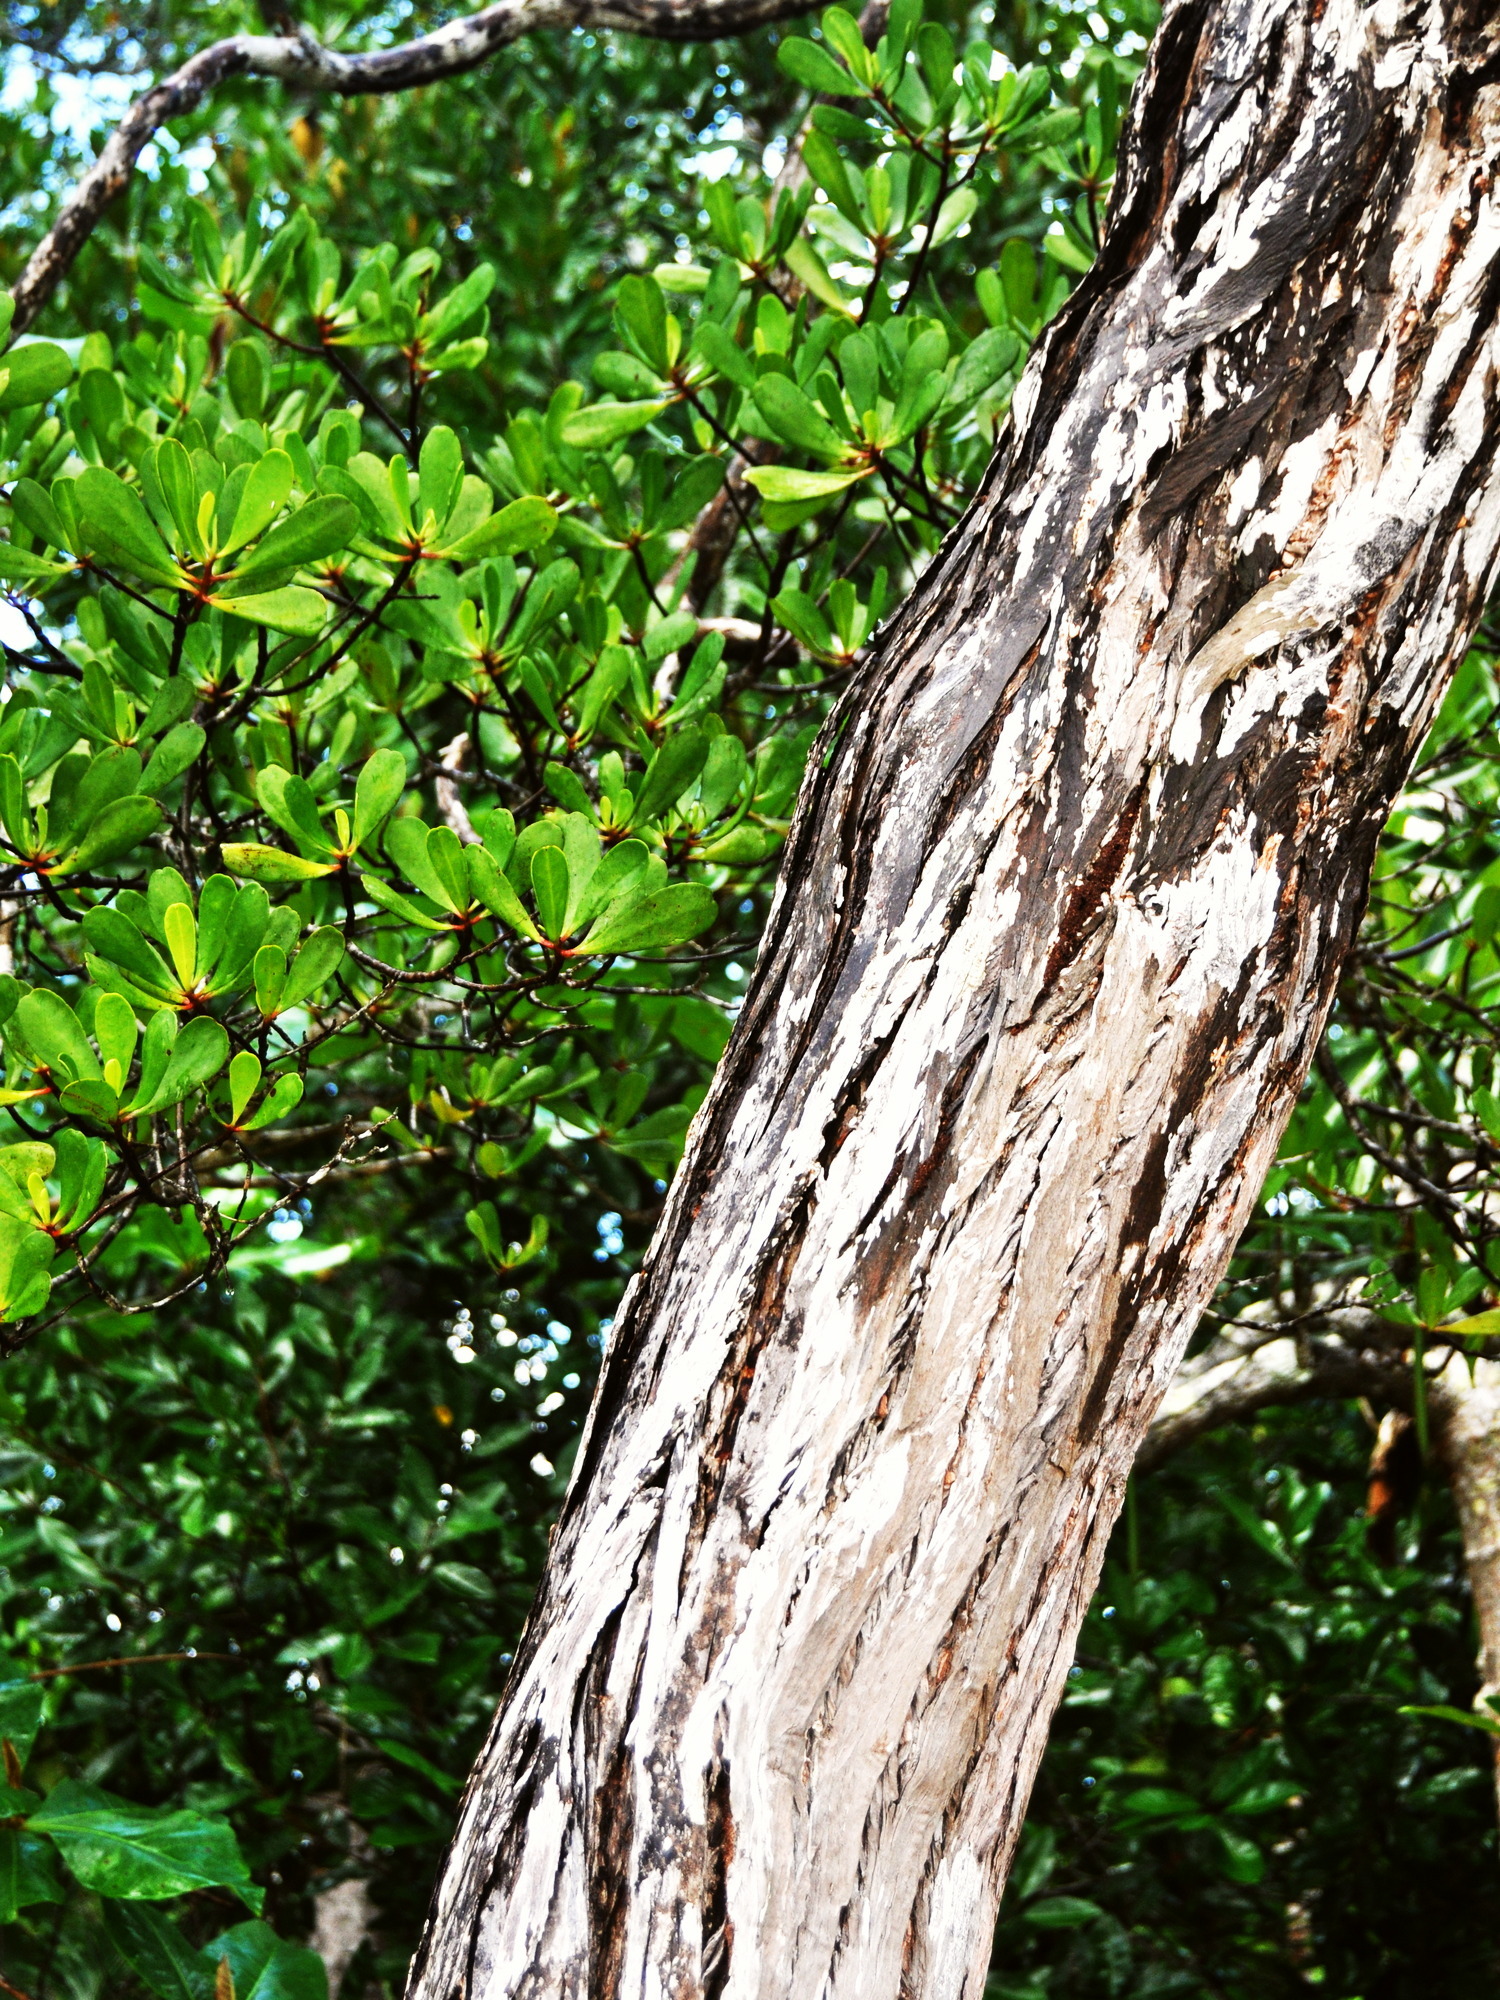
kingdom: Plantae
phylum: Tracheophyta
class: Magnoliopsida
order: Myrtales
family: Combretaceae
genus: Lumnitzera
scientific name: Lumnitzera littorea
